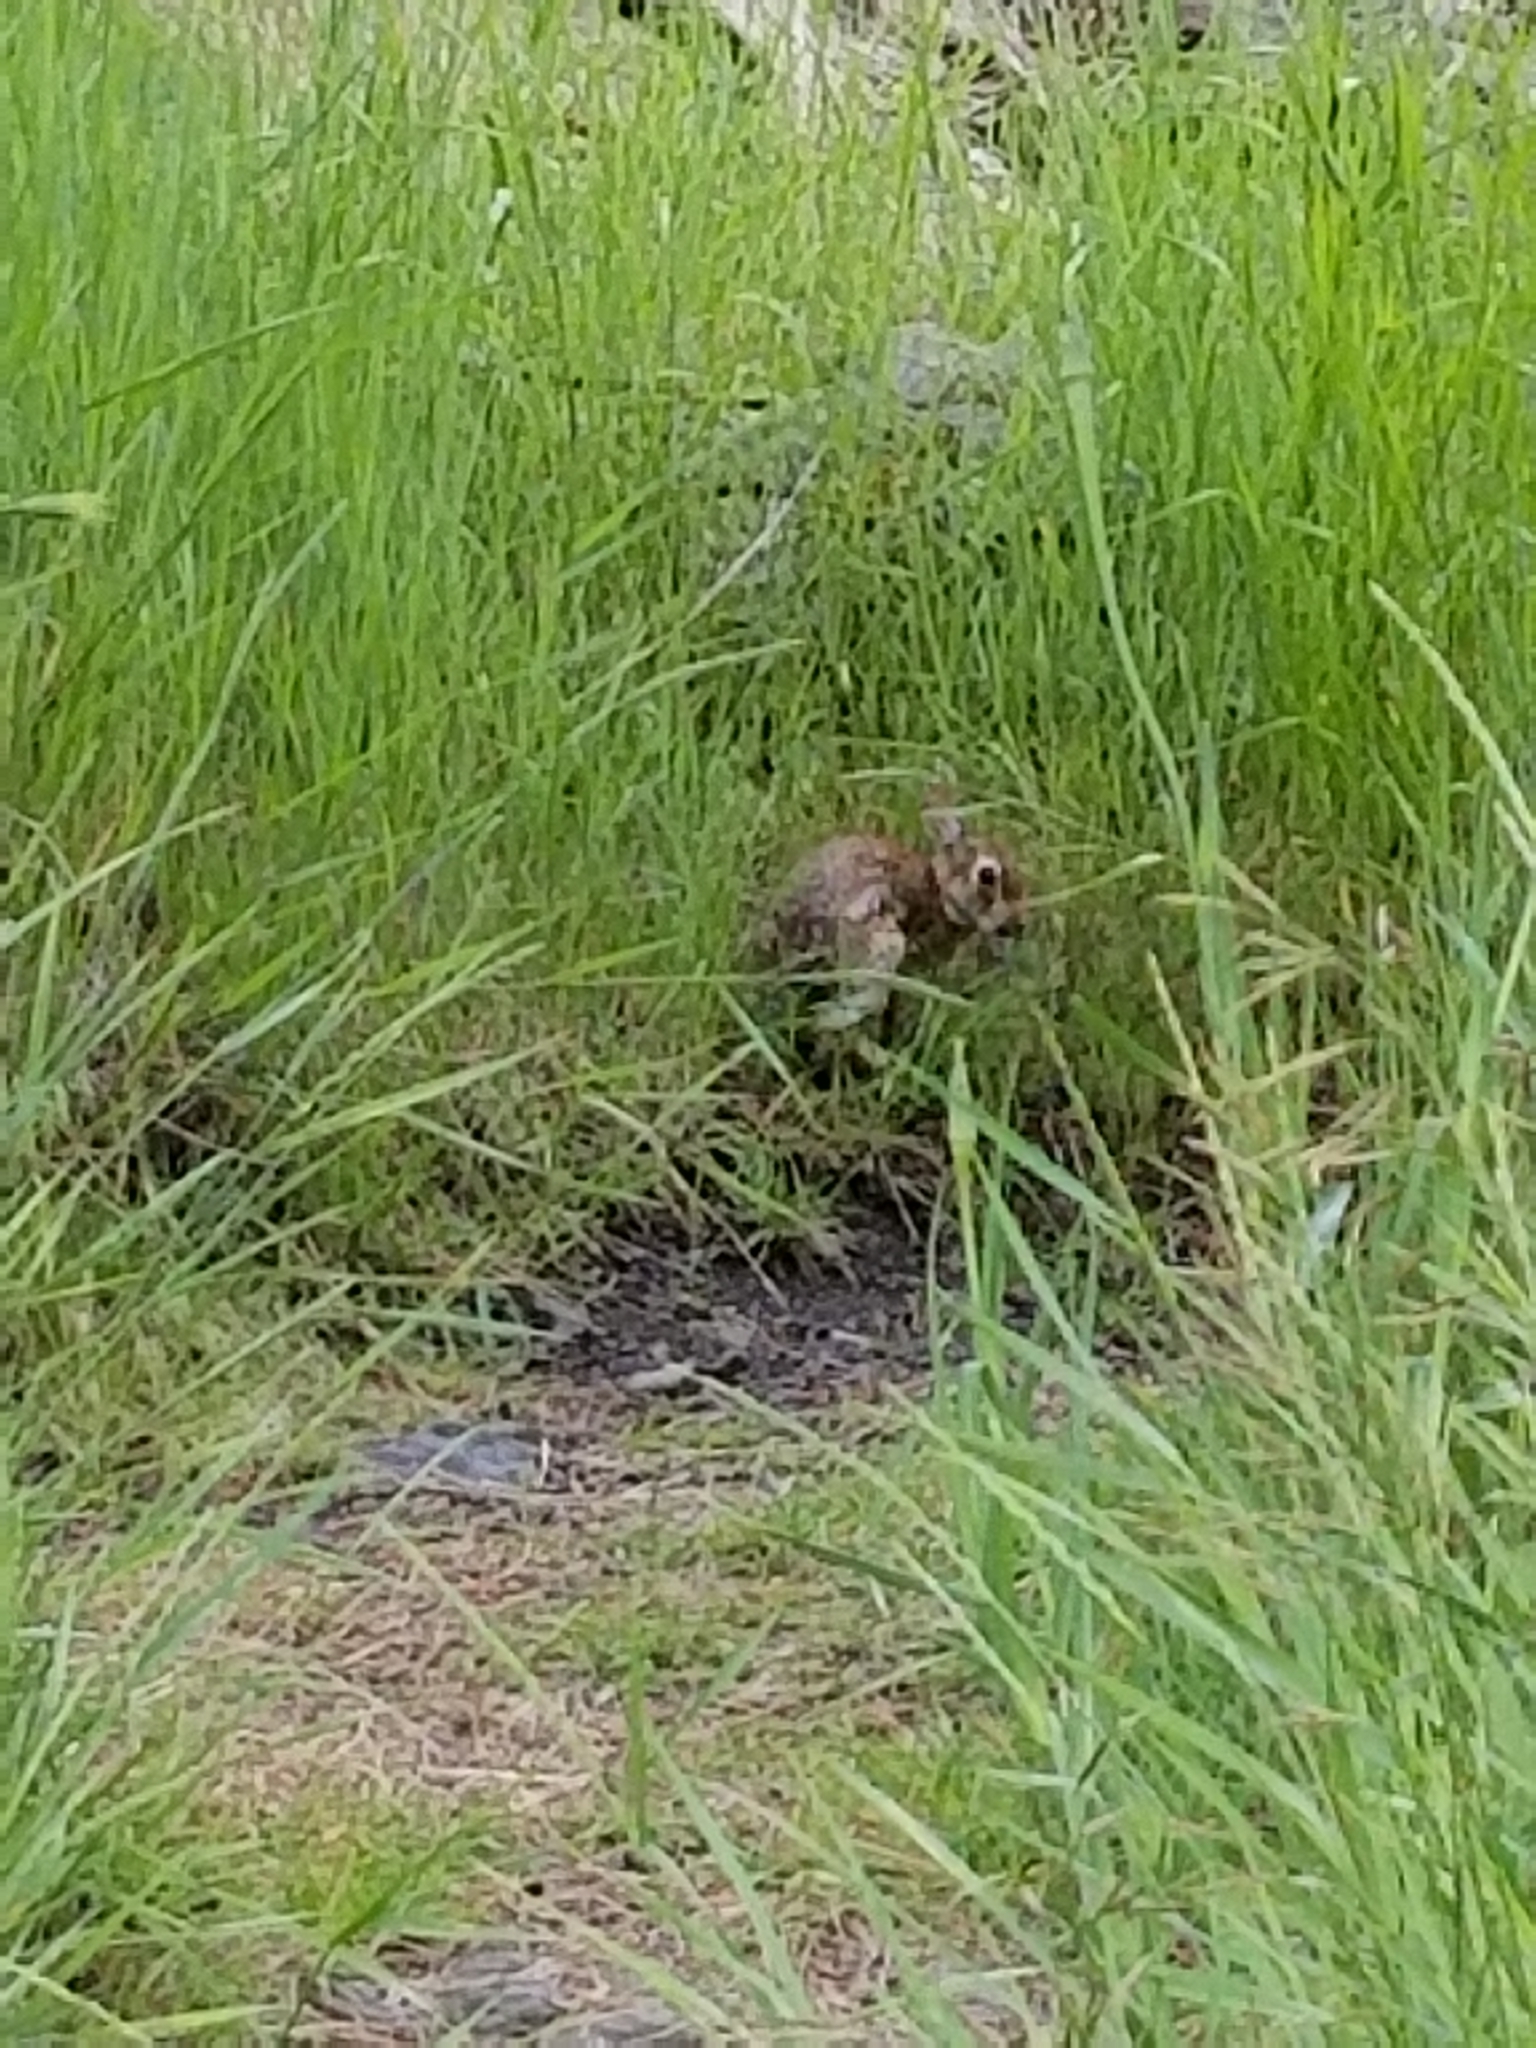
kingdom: Animalia
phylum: Chordata
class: Mammalia
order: Lagomorpha
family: Leporidae
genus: Sylvilagus
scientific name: Sylvilagus floridanus
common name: Eastern cottontail
